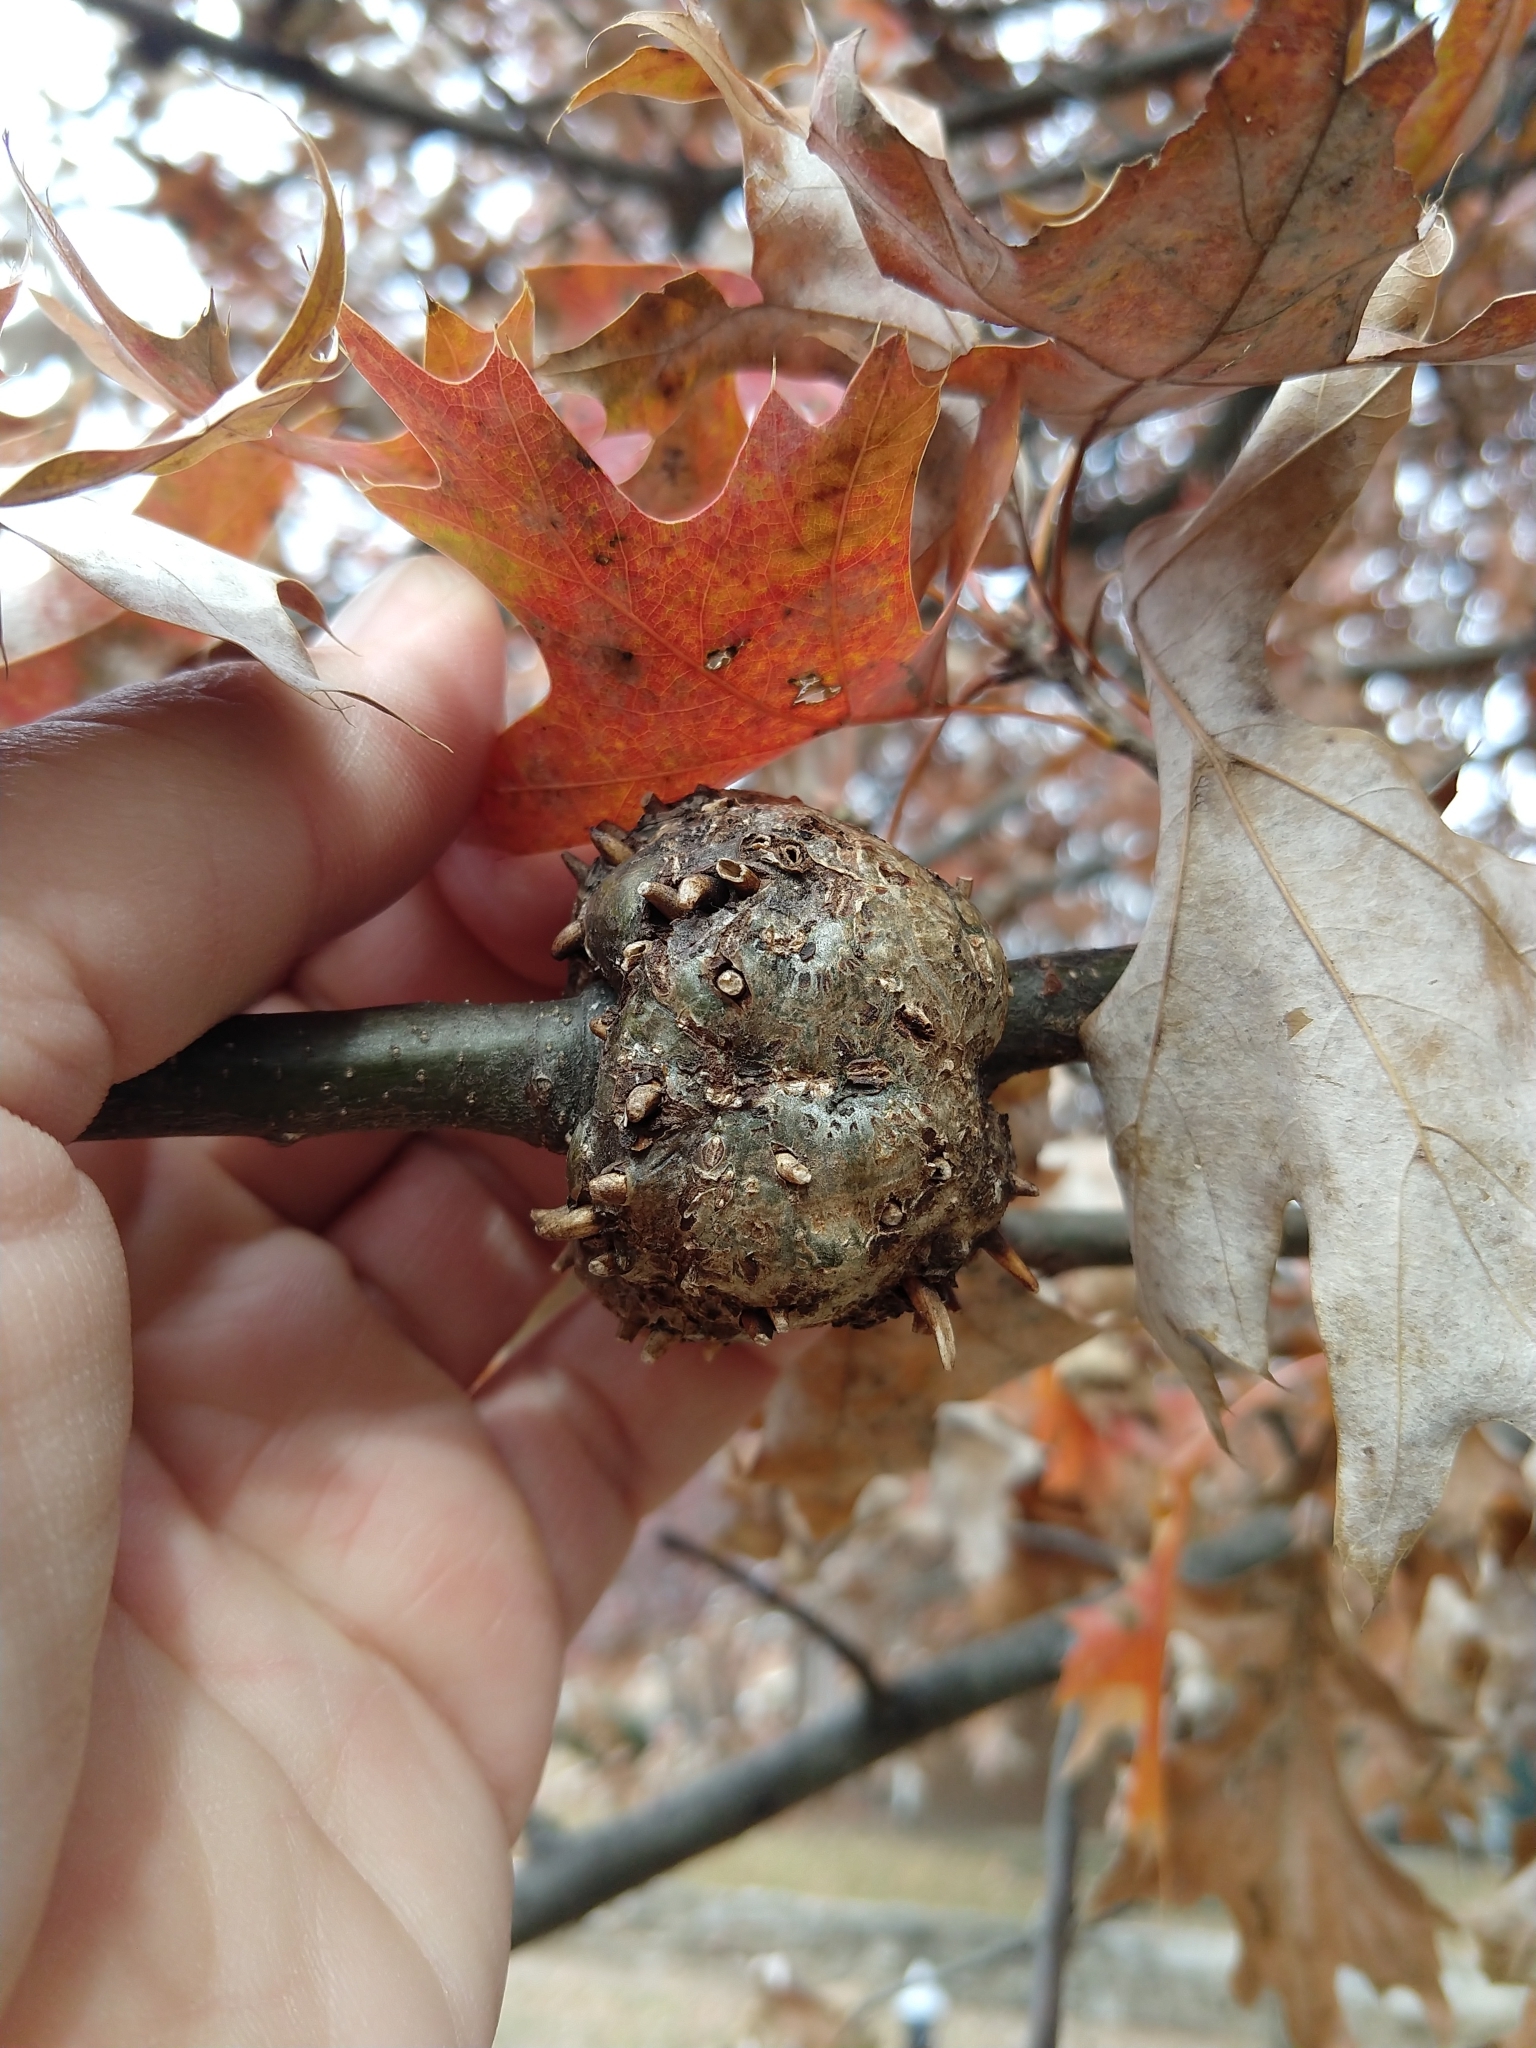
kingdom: Animalia
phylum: Arthropoda
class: Insecta
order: Hymenoptera
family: Cynipidae
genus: Callirhytis
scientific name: Callirhytis
